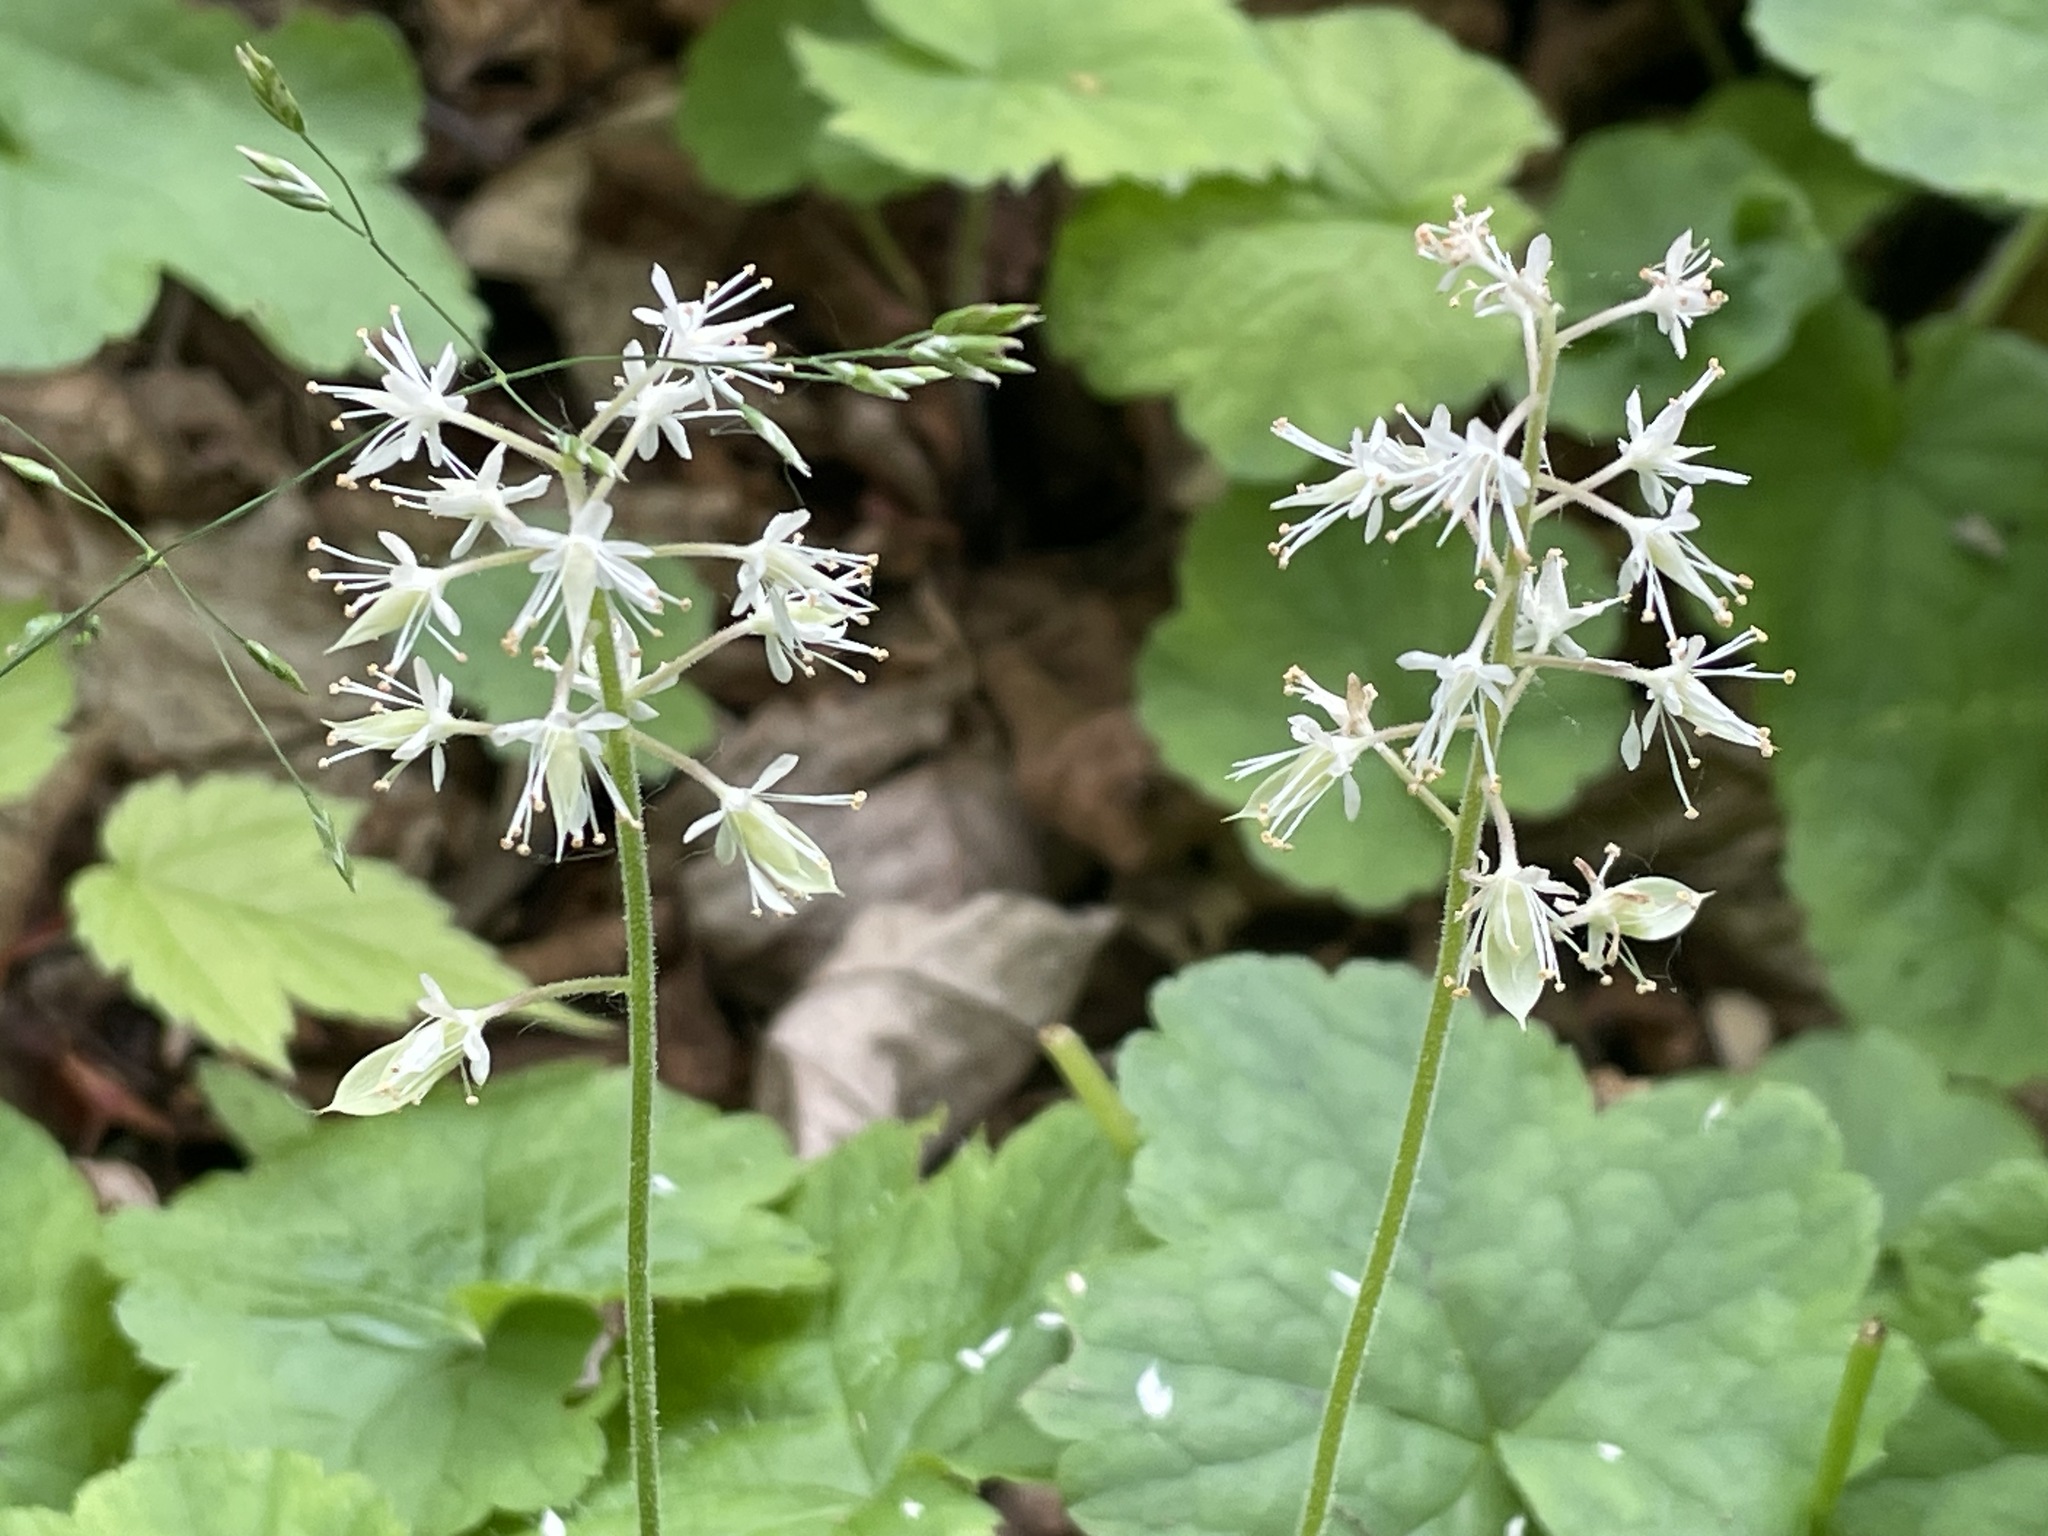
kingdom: Plantae
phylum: Tracheophyta
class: Magnoliopsida
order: Saxifragales
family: Saxifragaceae
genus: Tiarella
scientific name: Tiarella stolonifera
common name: Stoloniferous foamflower
